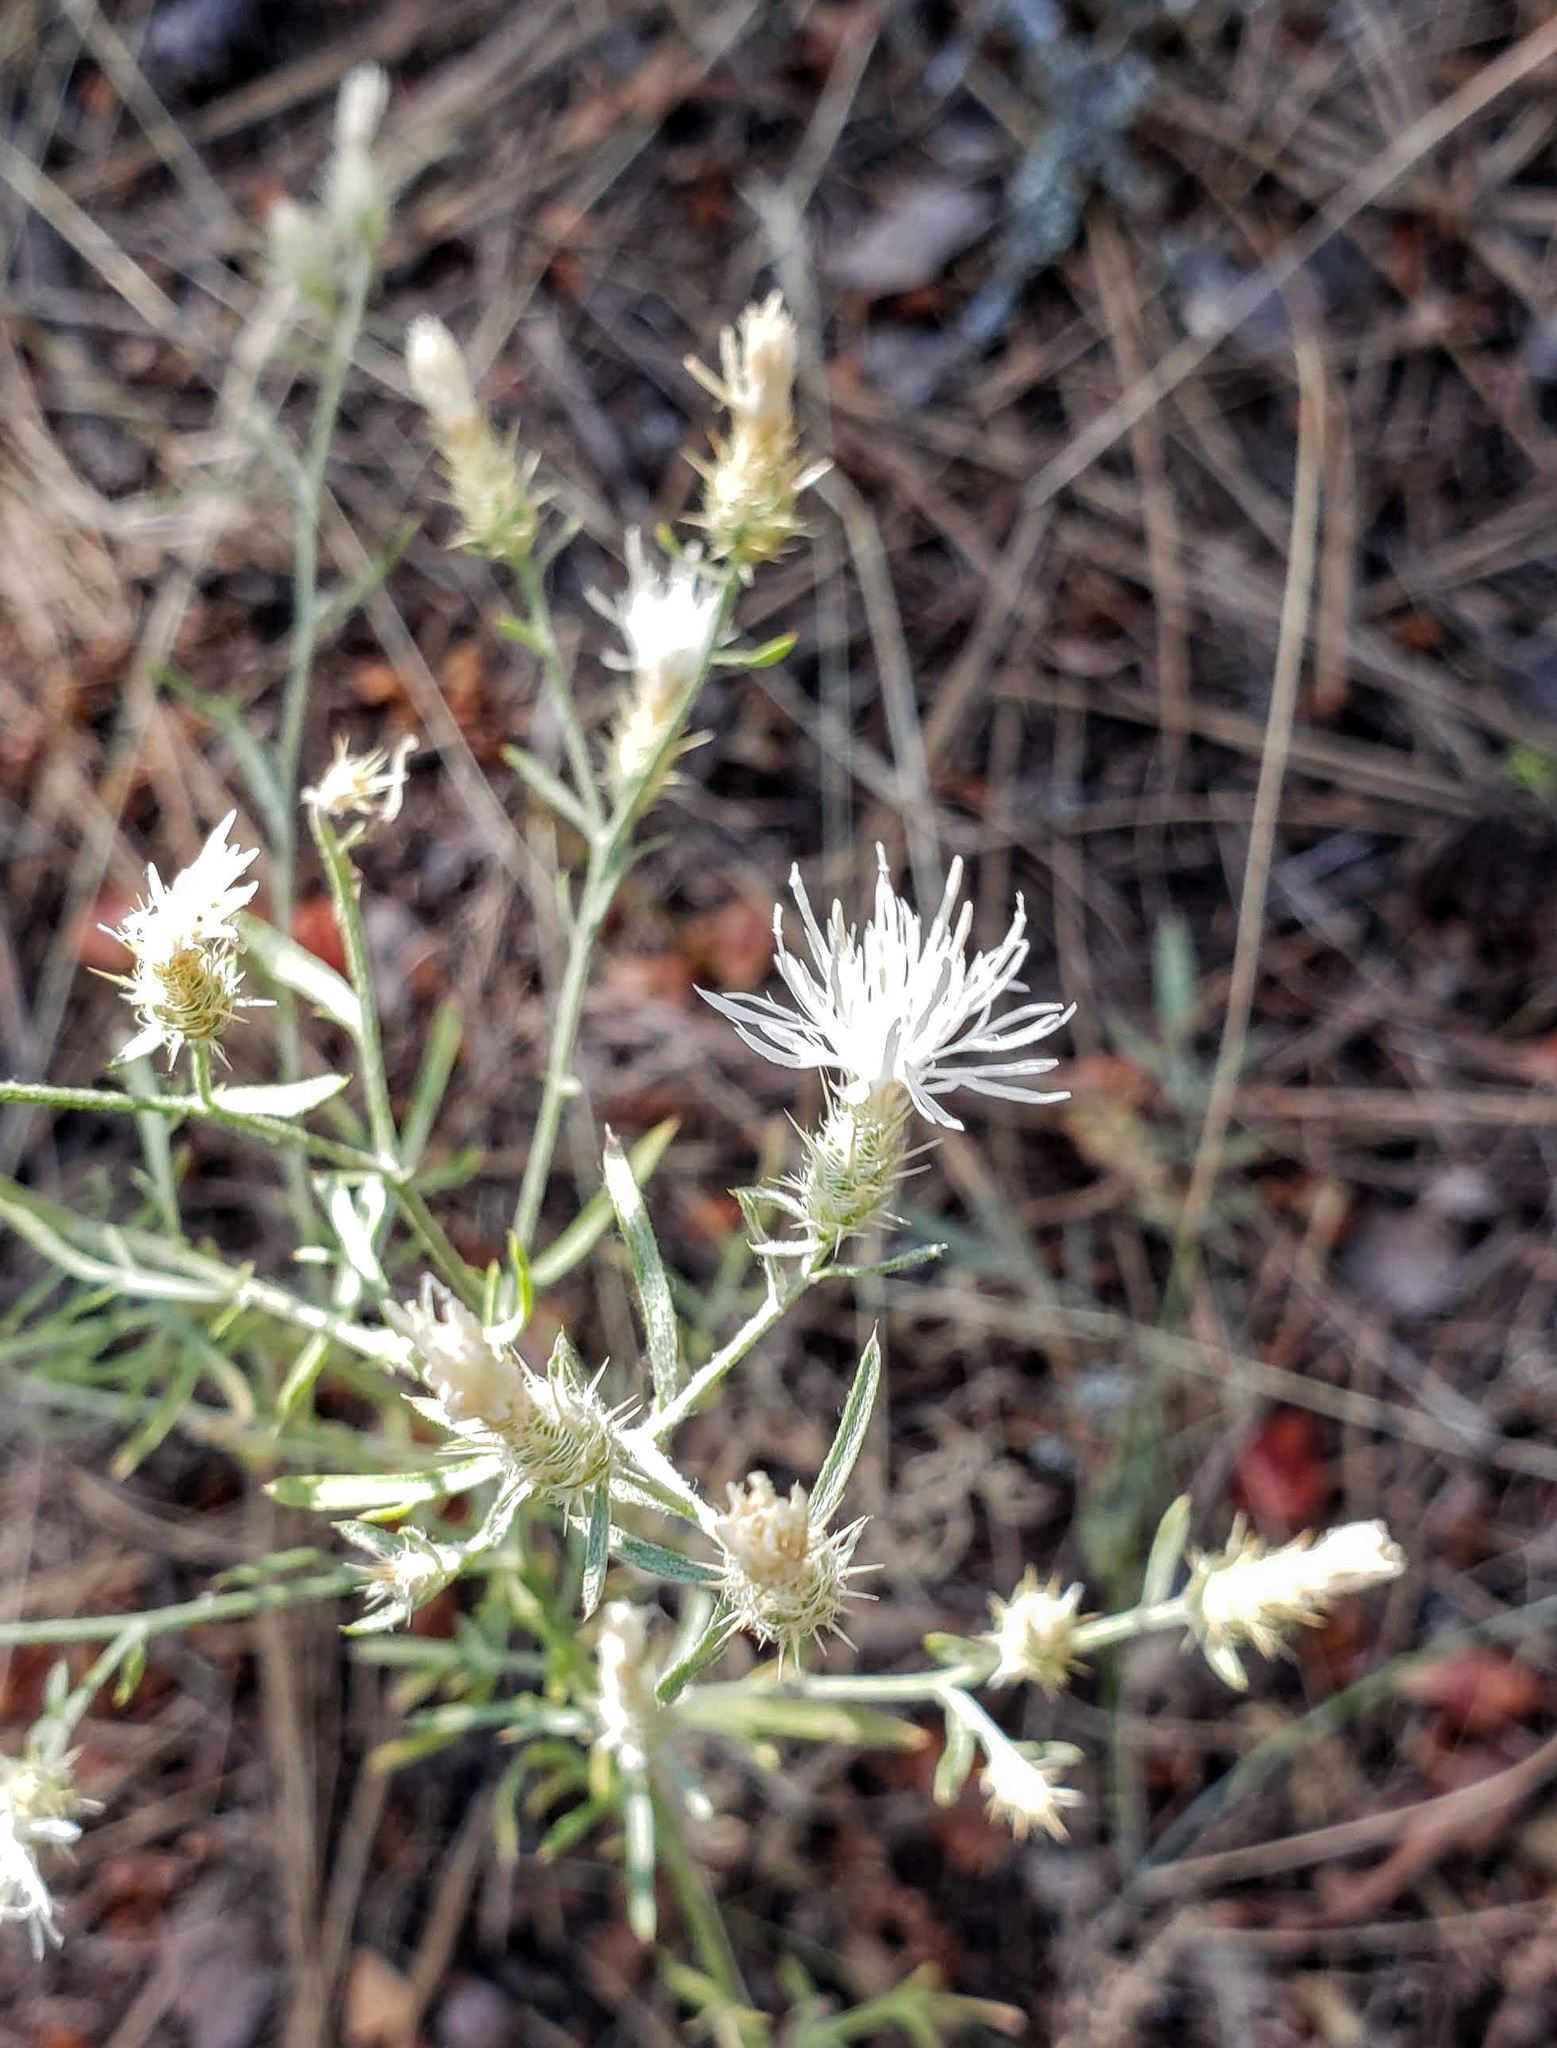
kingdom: Plantae
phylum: Tracheophyta
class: Magnoliopsida
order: Asterales
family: Asteraceae
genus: Centaurea
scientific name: Centaurea diffusa
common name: Diffuse knapweed
